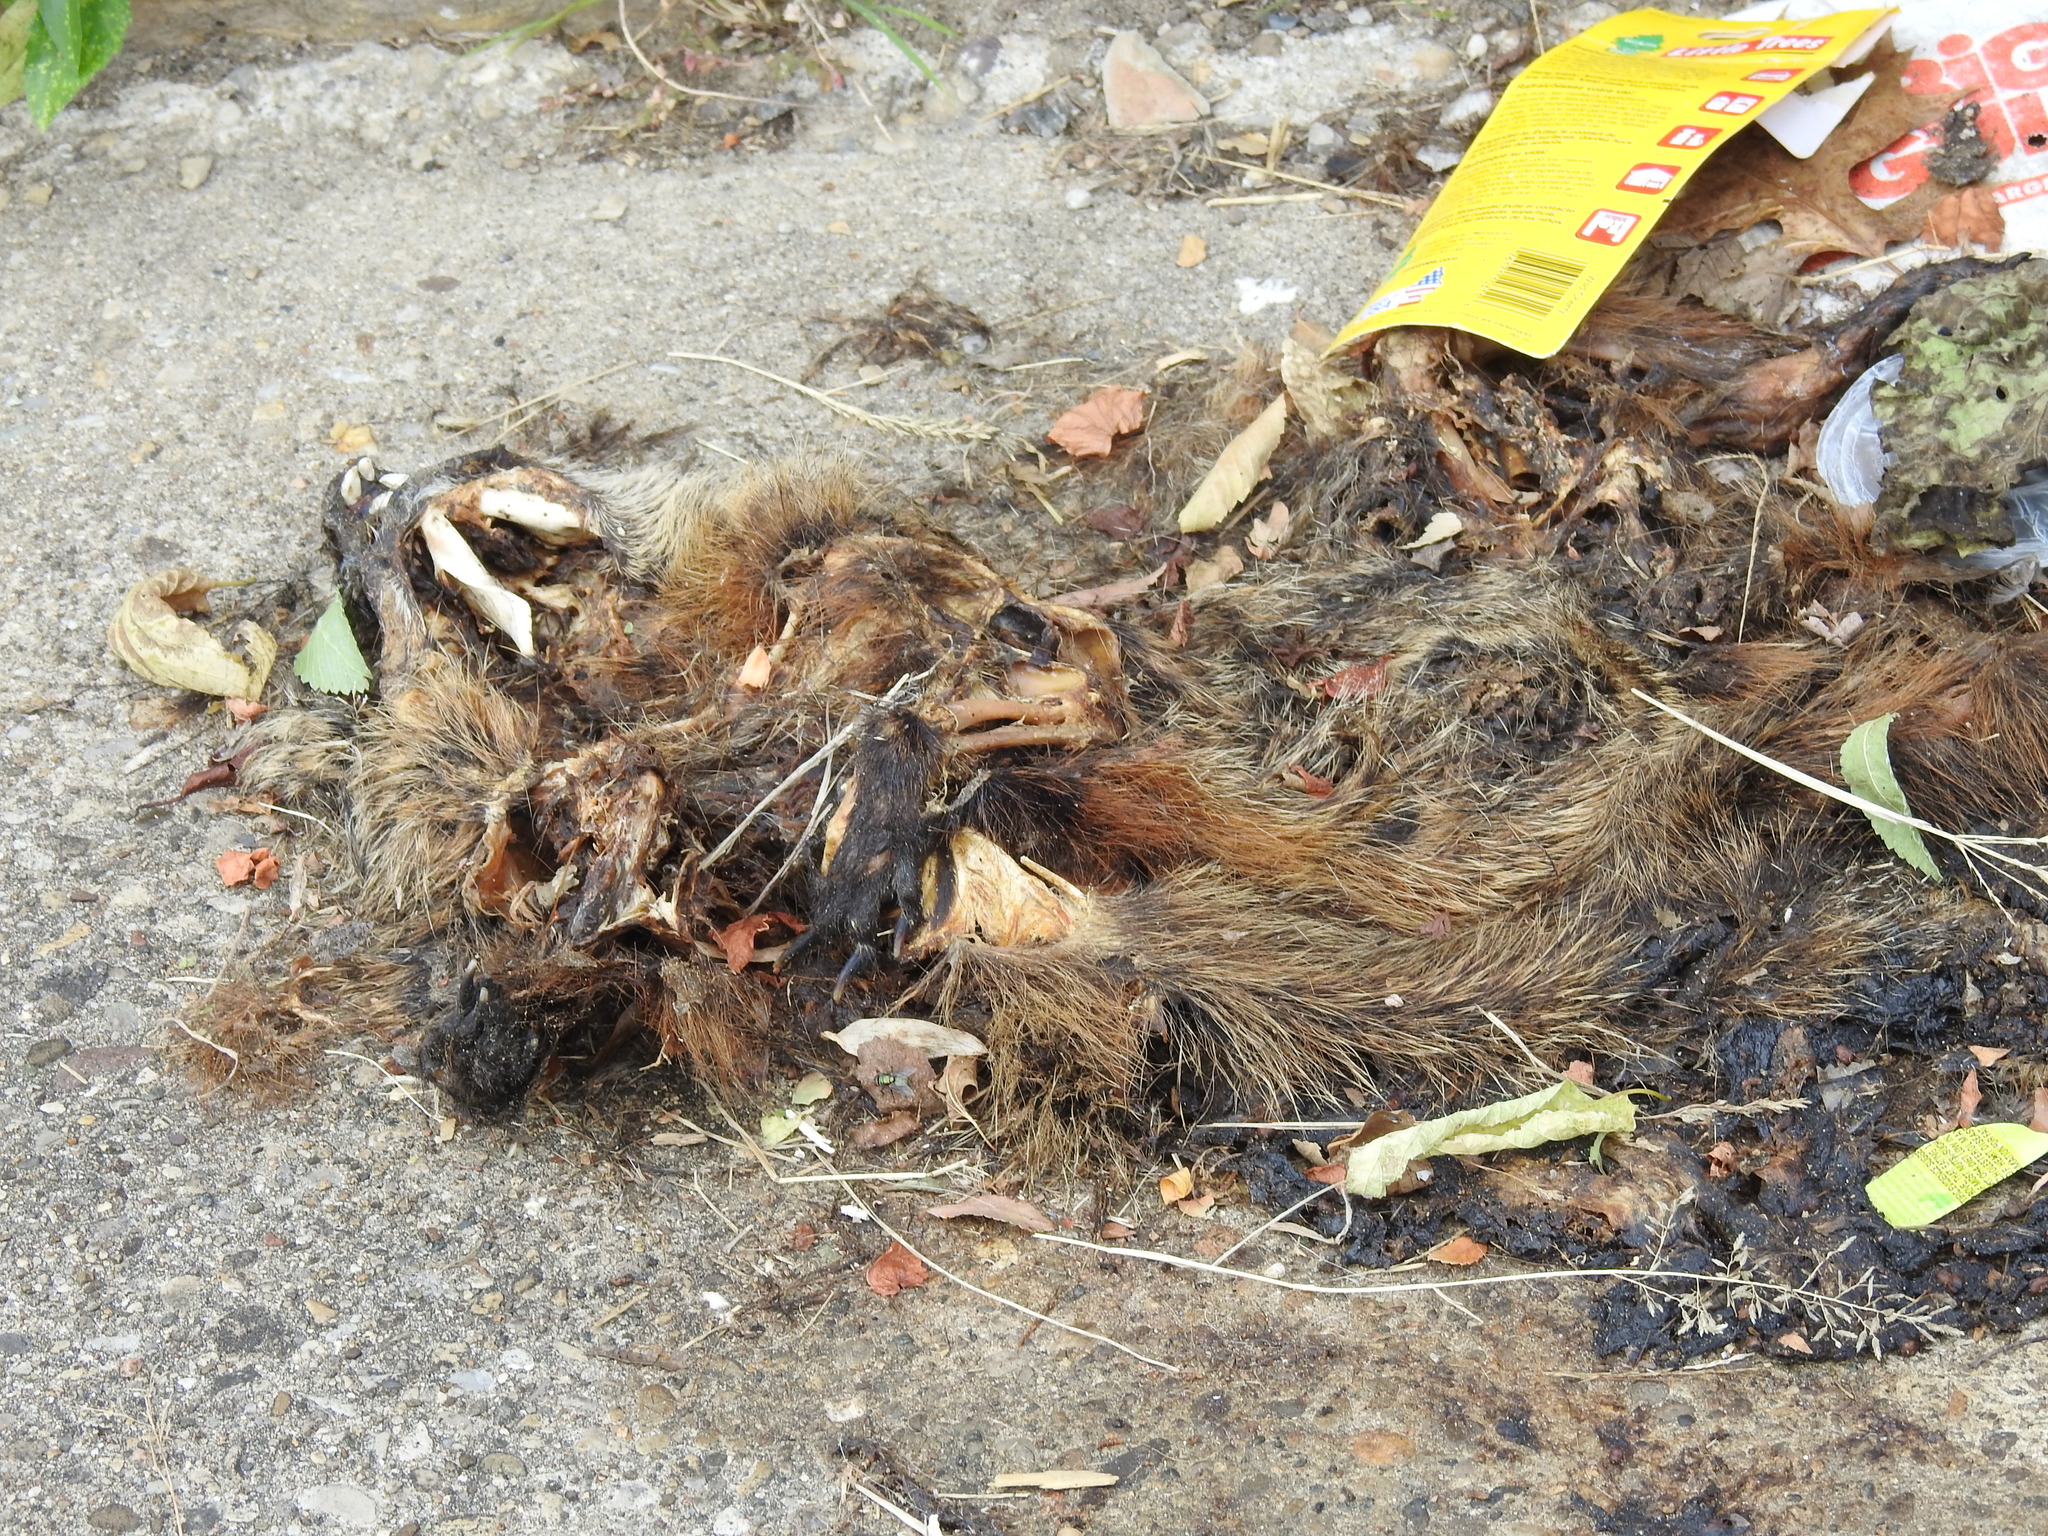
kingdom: Animalia
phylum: Chordata
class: Mammalia
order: Rodentia
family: Sciuridae
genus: Marmota
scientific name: Marmota monax
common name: Groundhog
